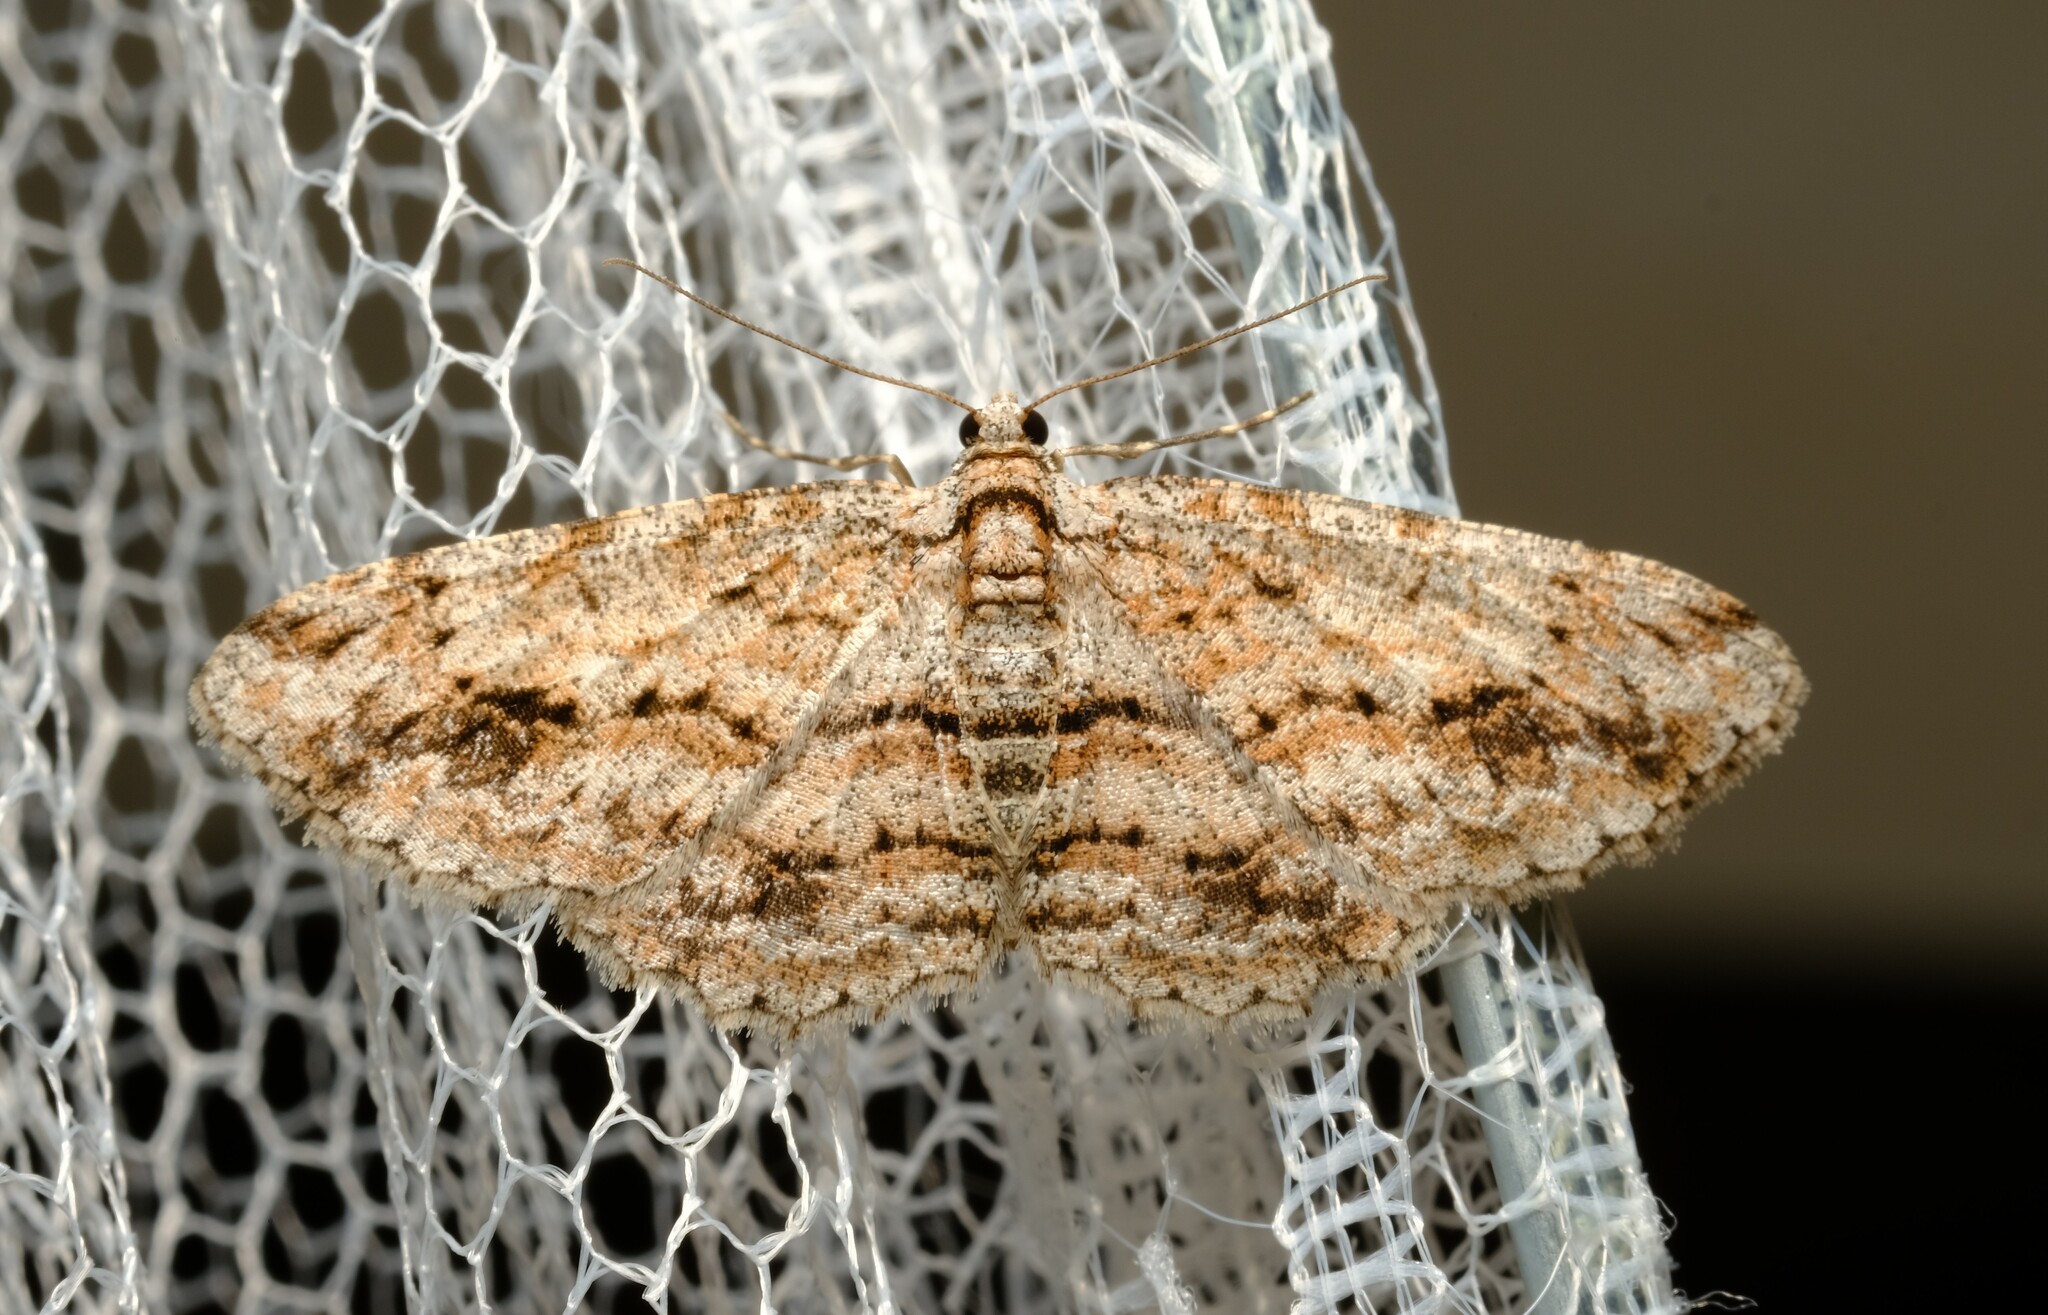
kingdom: Animalia
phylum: Arthropoda
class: Insecta
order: Lepidoptera
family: Geometridae
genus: Didymoctenia
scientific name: Didymoctenia exsuperata
